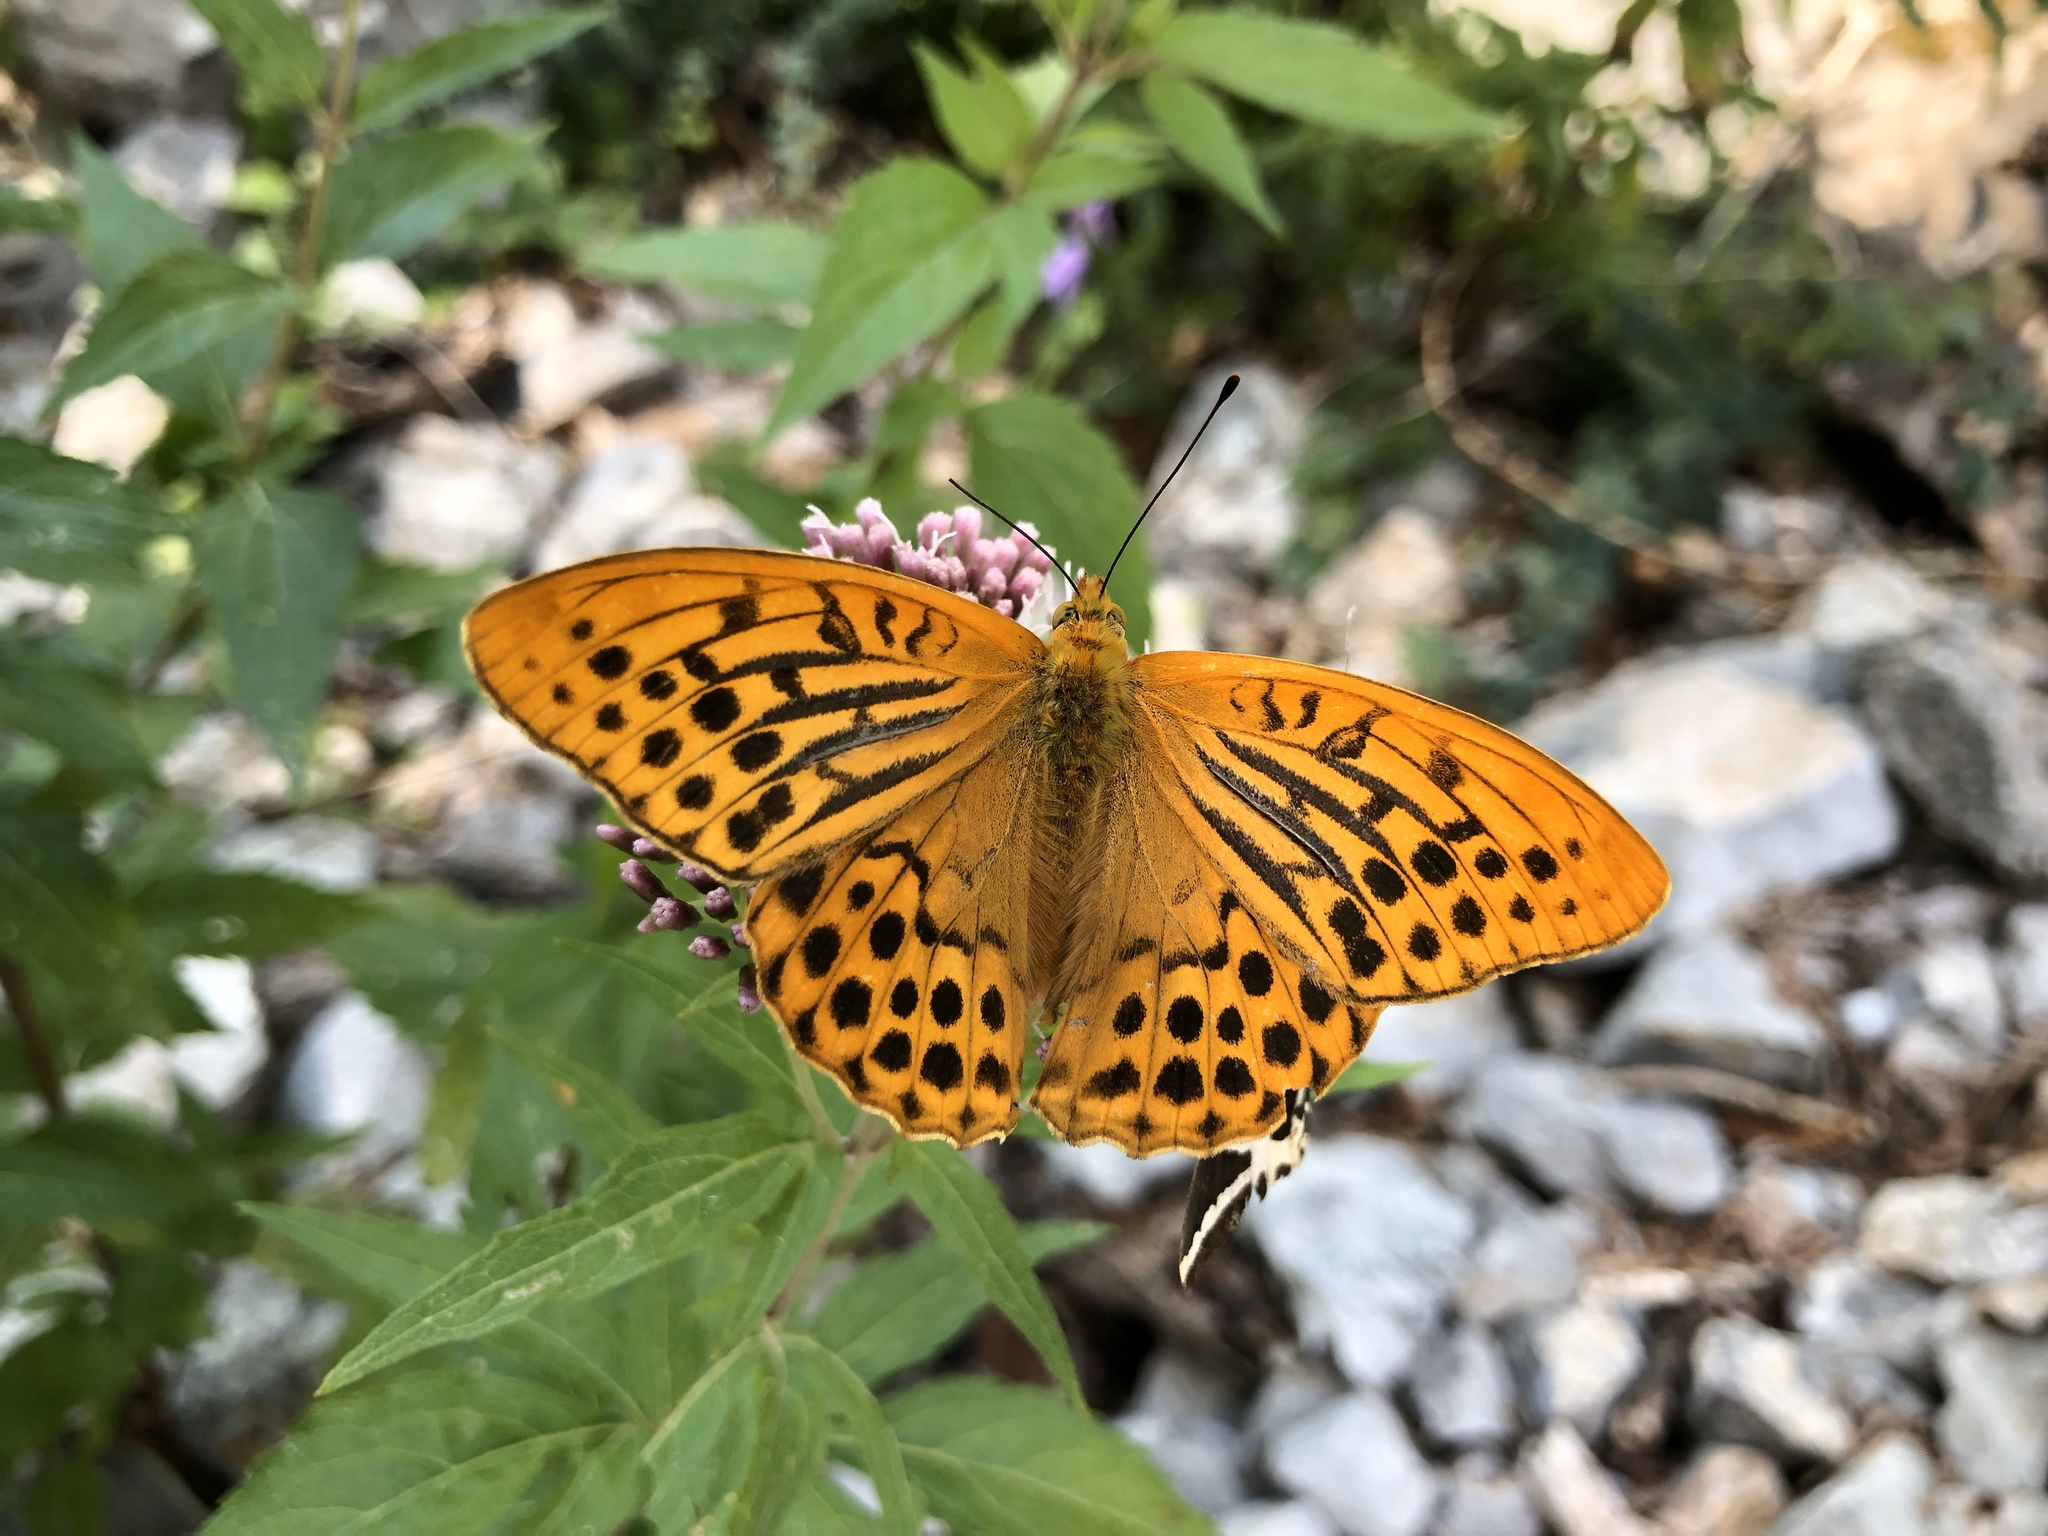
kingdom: Animalia
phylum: Arthropoda
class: Insecta
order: Lepidoptera
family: Nymphalidae
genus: Argynnis
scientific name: Argynnis paphia
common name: Silver-washed fritillary
